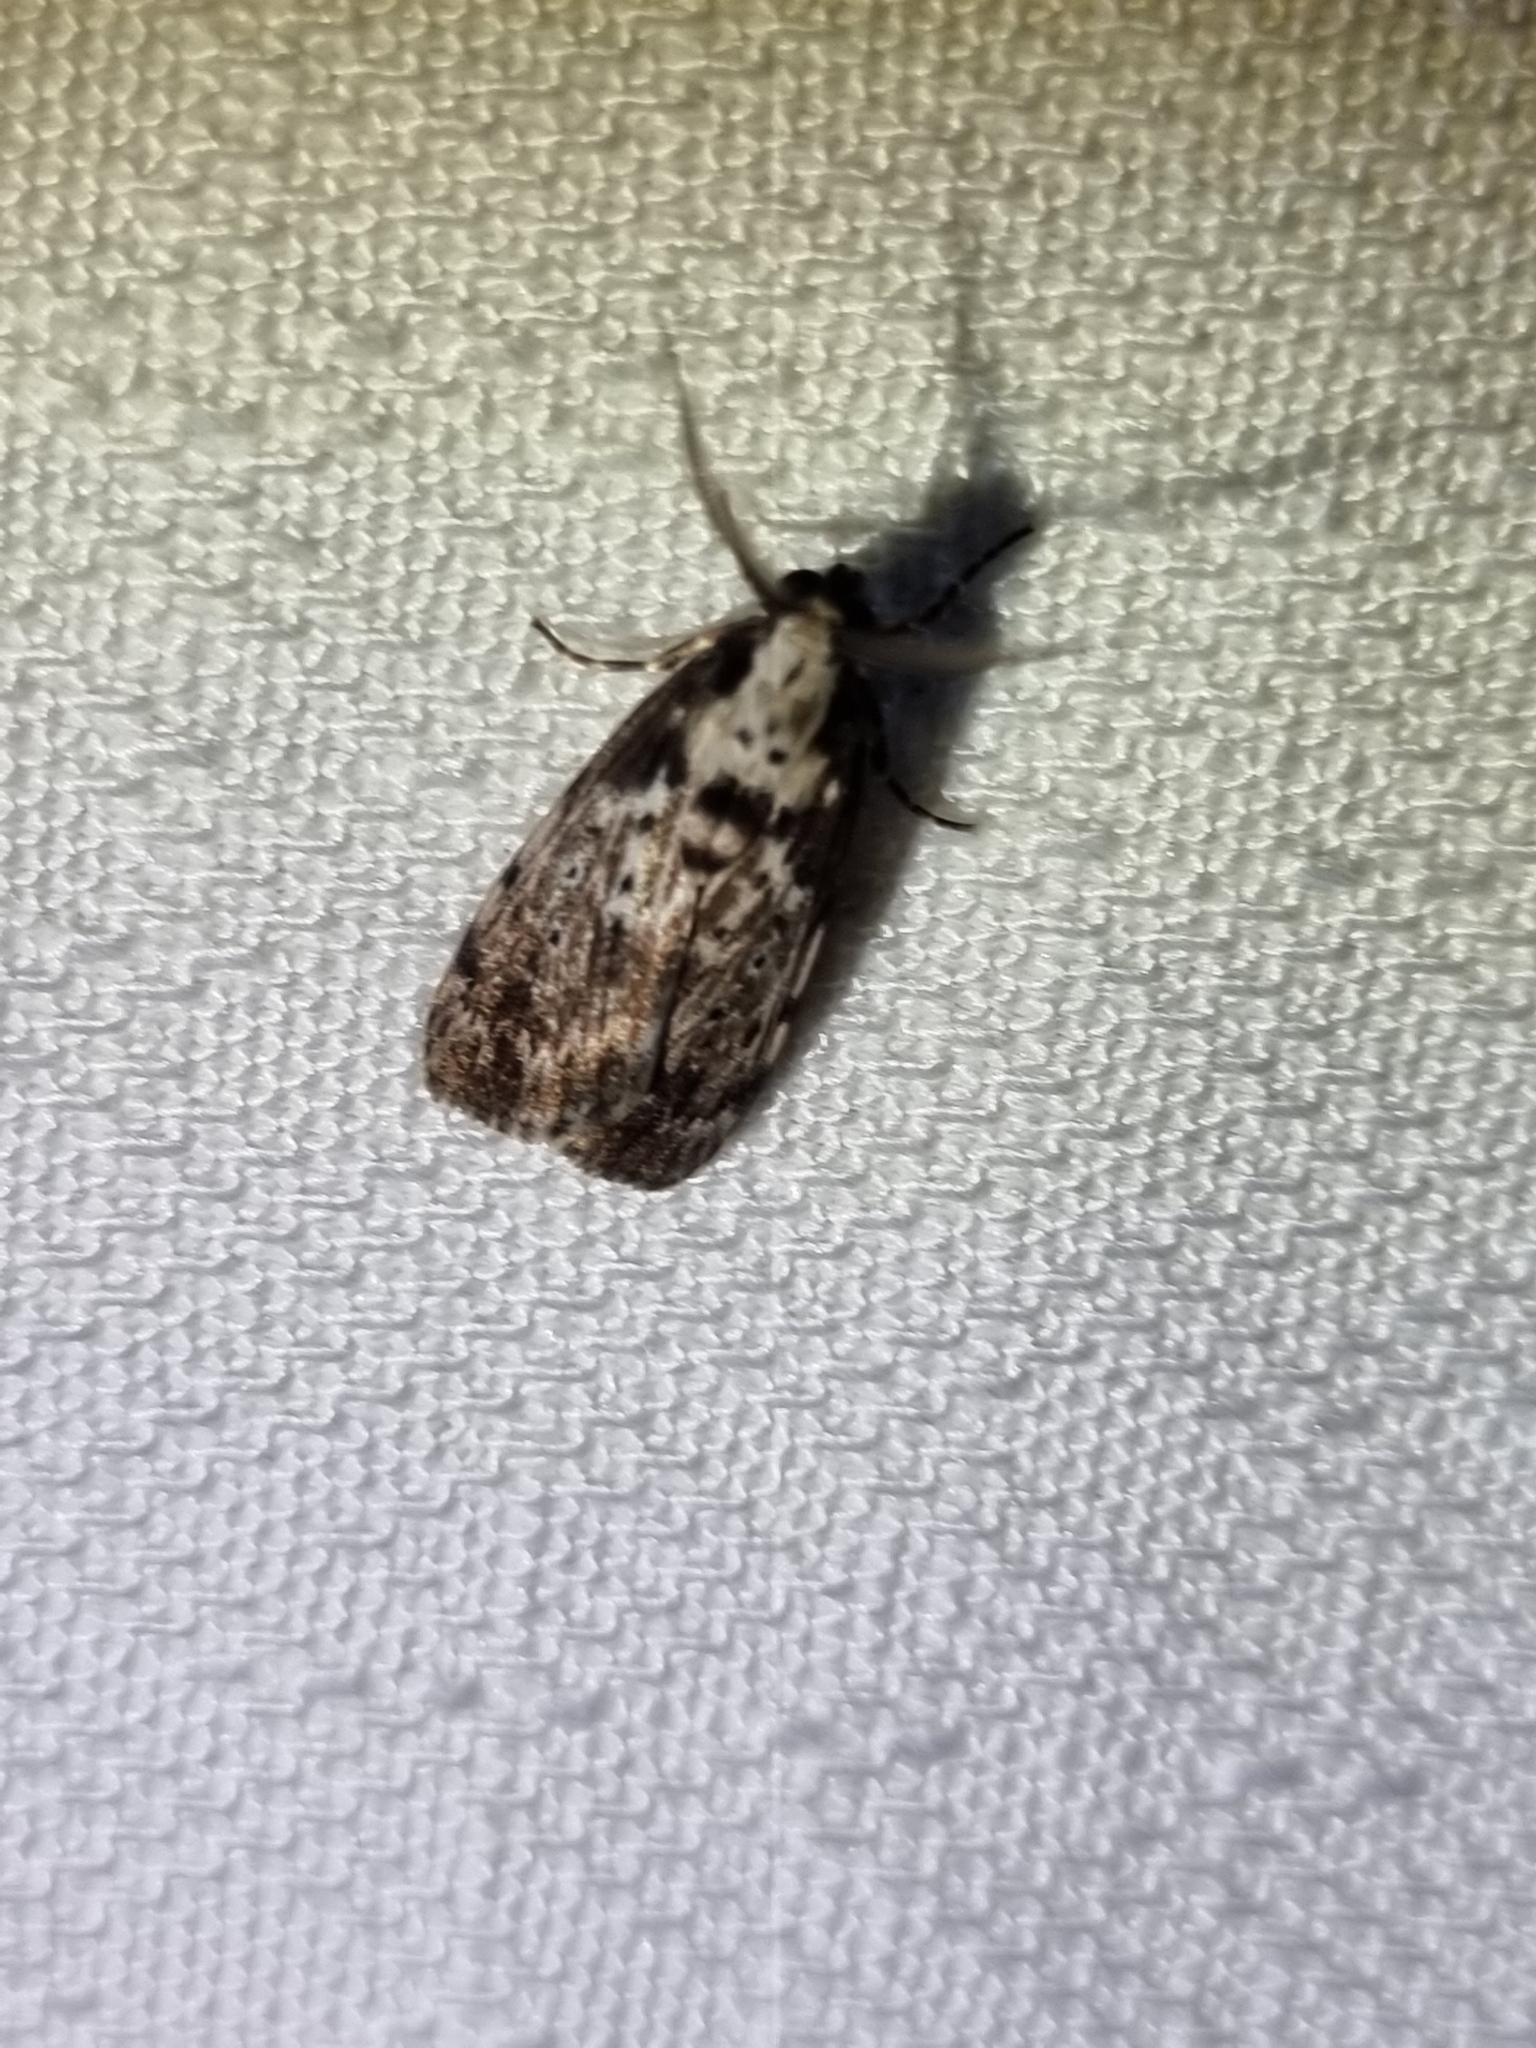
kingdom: Animalia
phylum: Arthropoda
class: Insecta
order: Lepidoptera
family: Erebidae
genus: Digama
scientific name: Digama Sommeria marmorea
